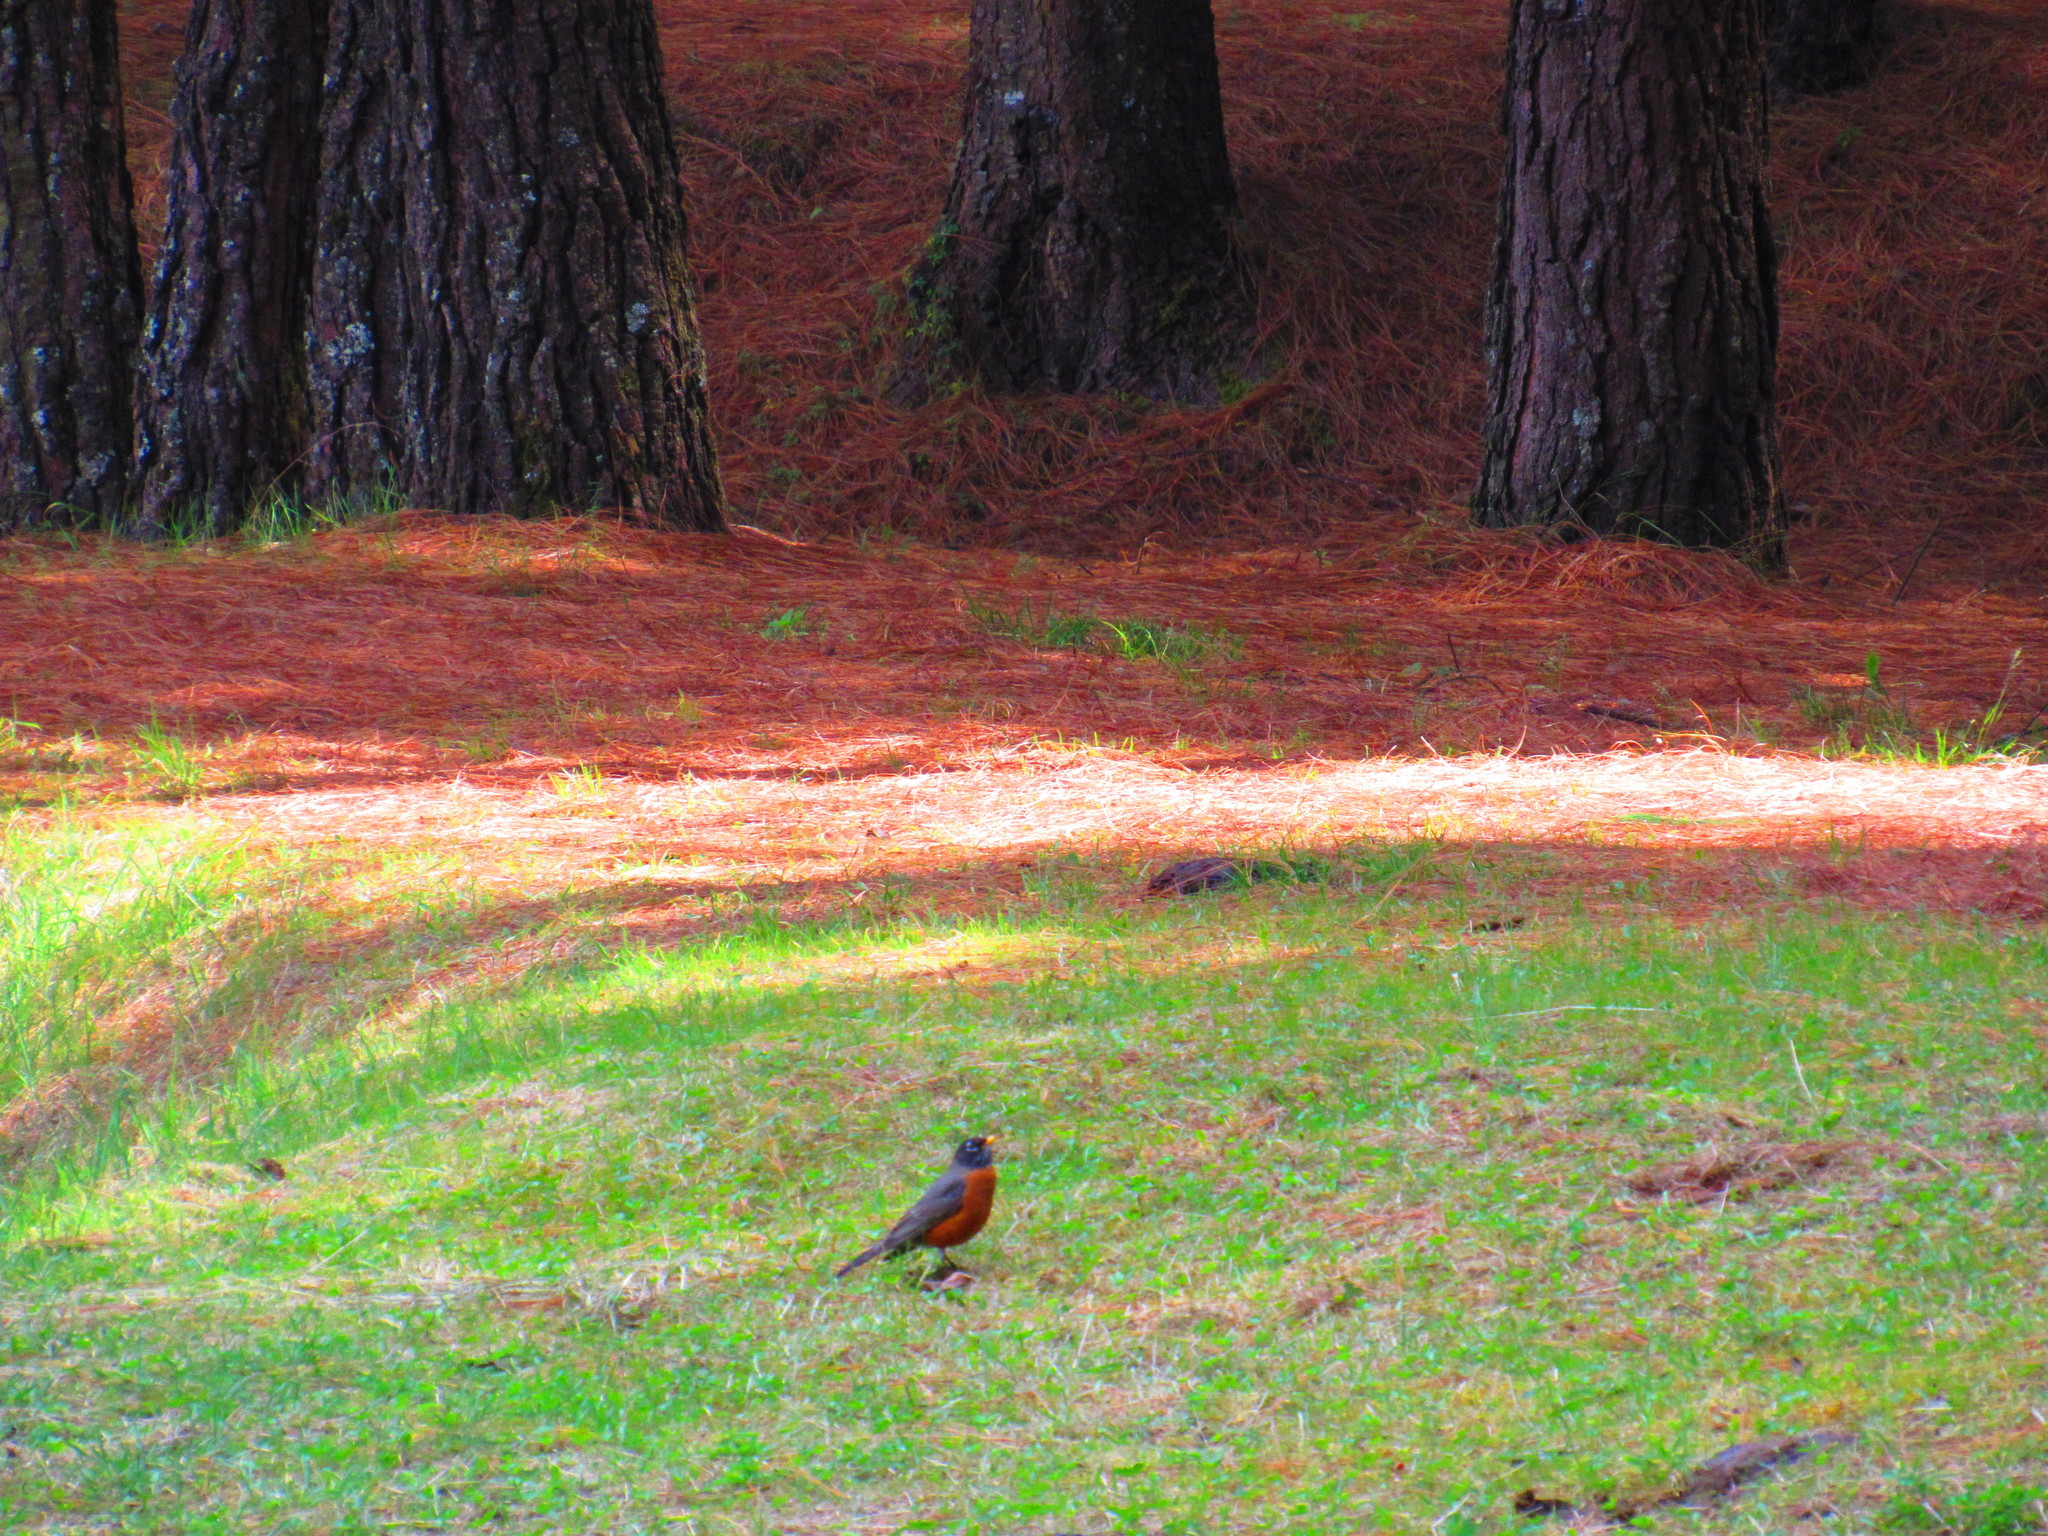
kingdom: Animalia
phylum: Chordata
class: Aves
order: Passeriformes
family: Turdidae
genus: Turdus
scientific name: Turdus migratorius
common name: American robin
